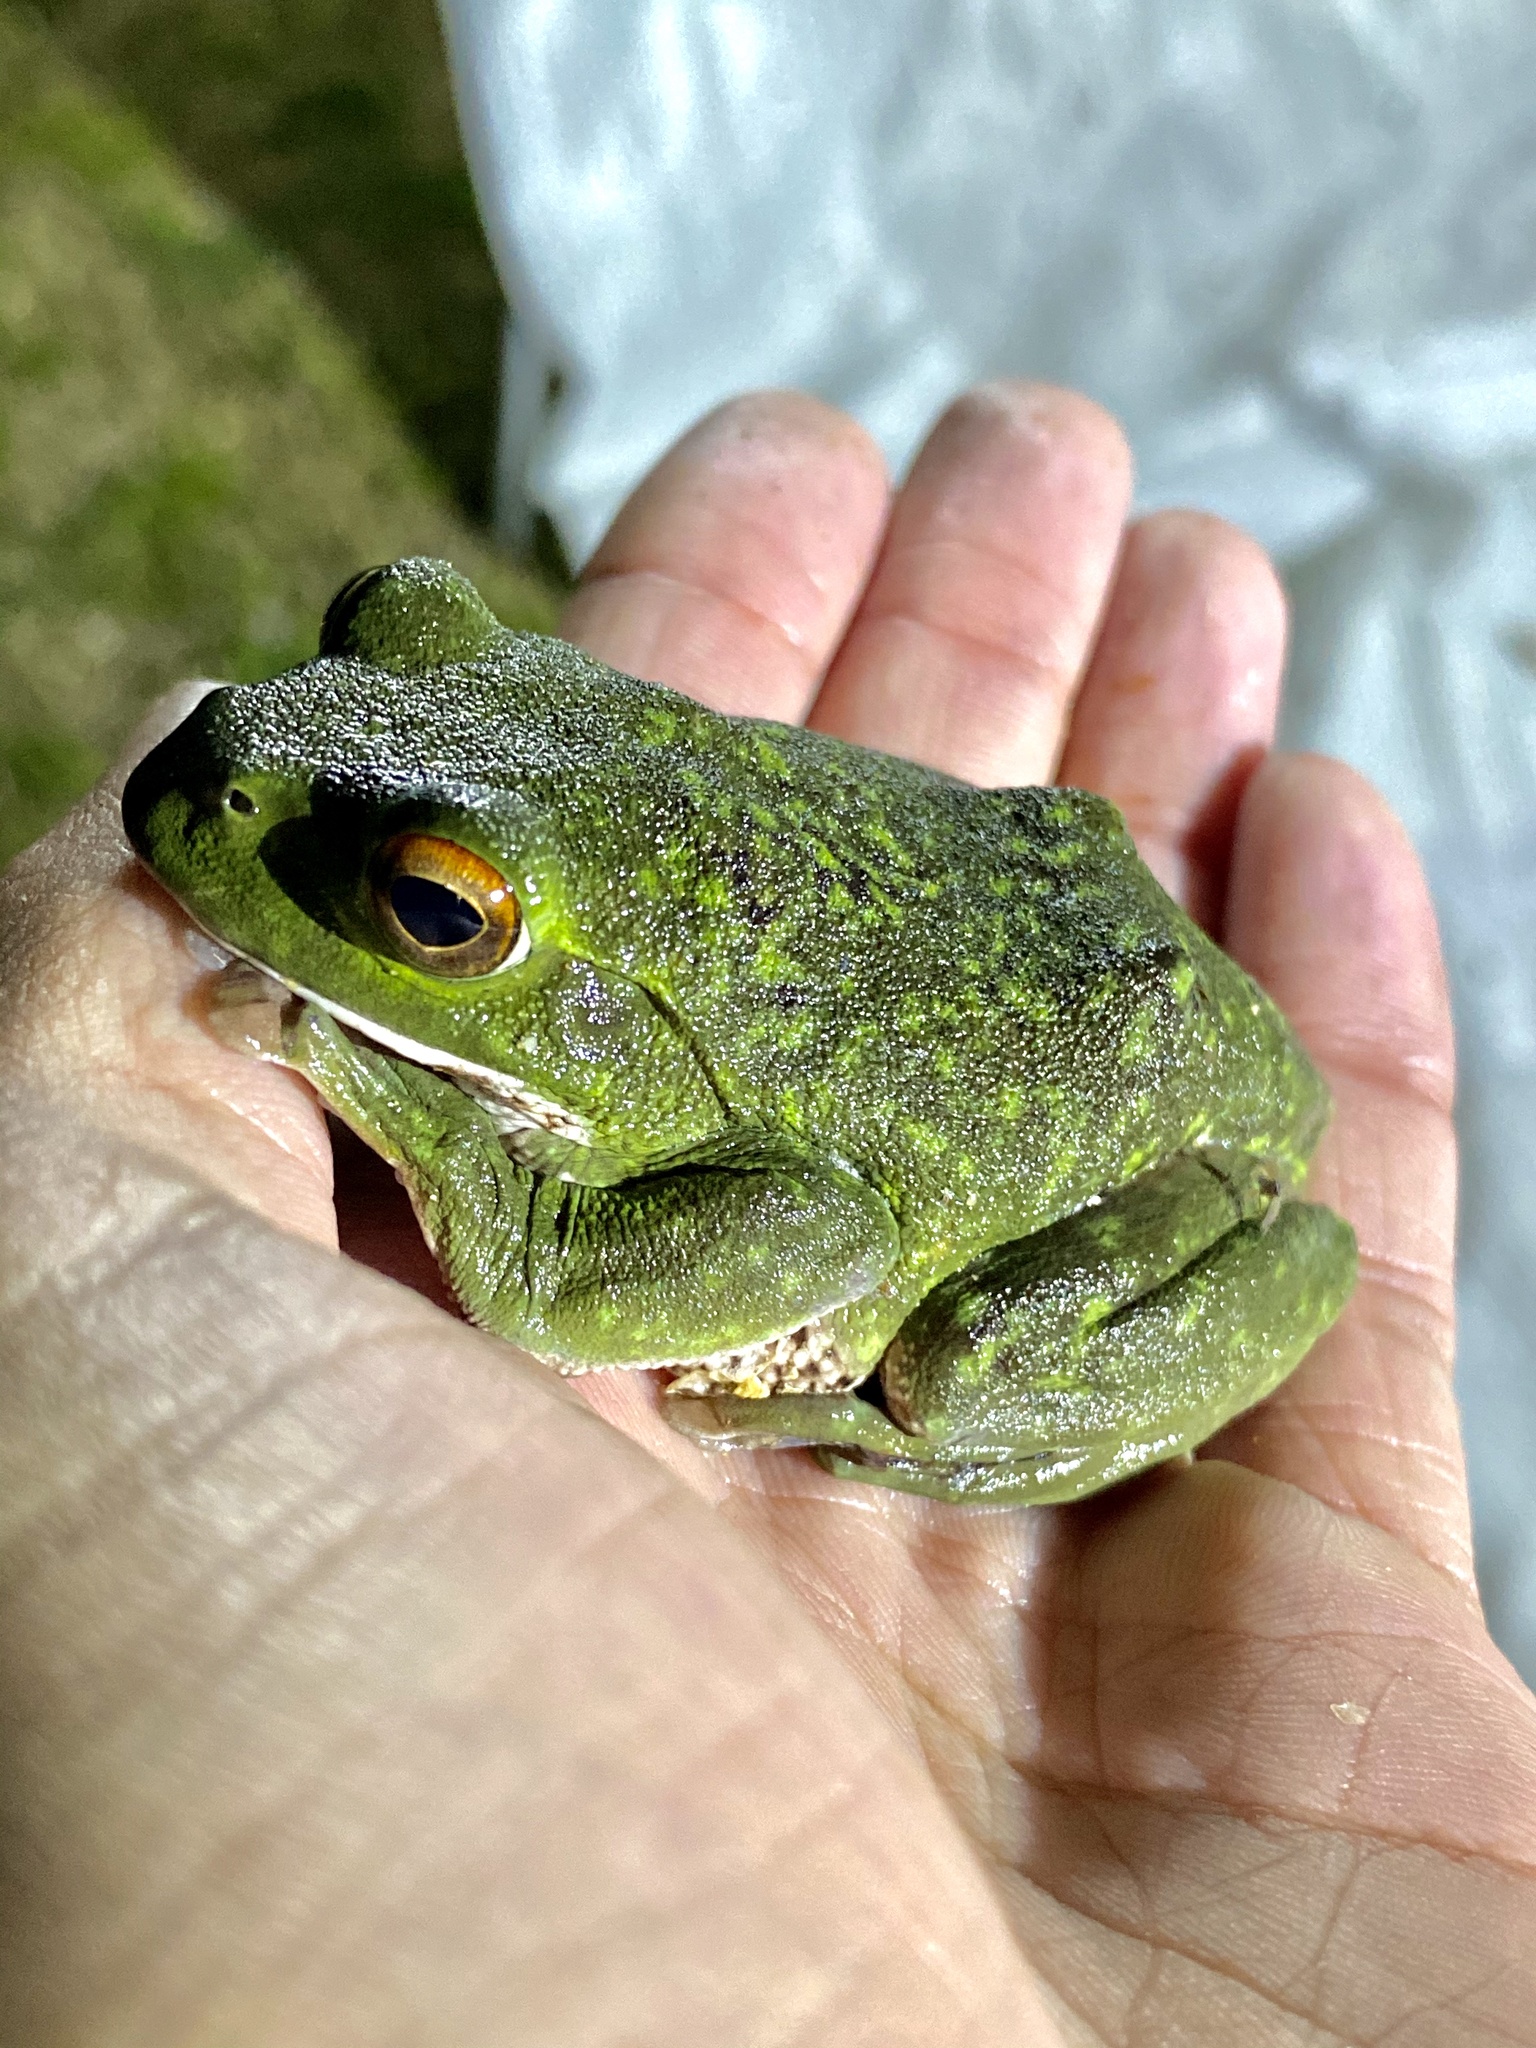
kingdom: Animalia
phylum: Chordata
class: Amphibia
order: Anura
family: Rhacophoridae
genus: Zhangixalus
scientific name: Zhangixalus arboreus
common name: Forest green tree frog
